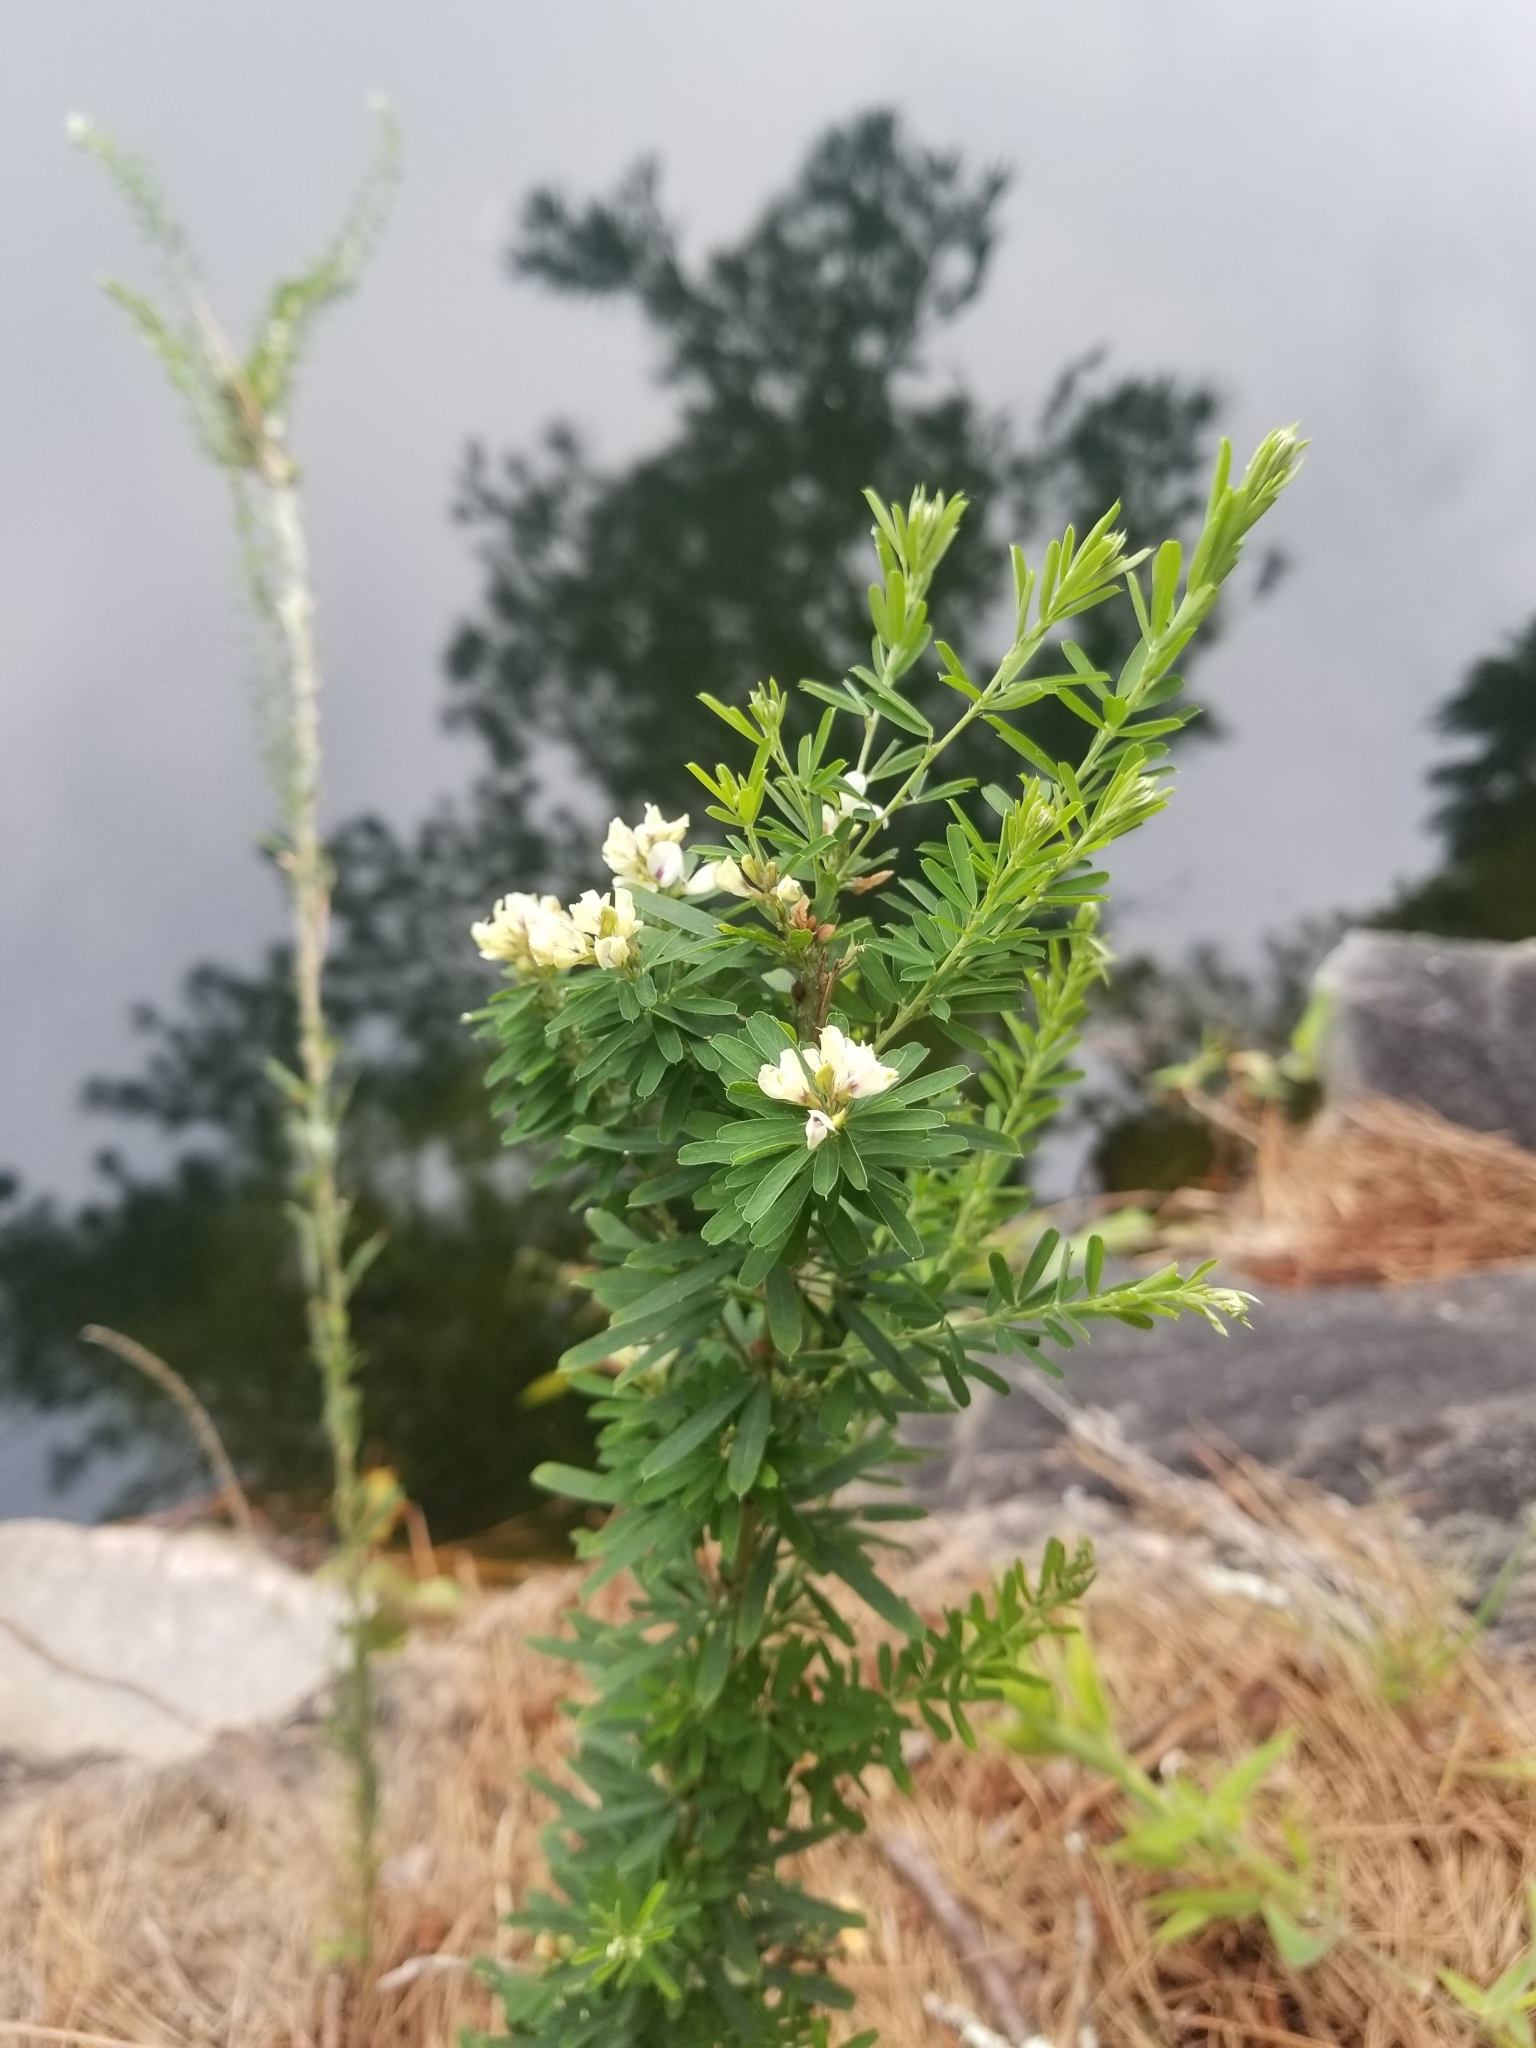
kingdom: Plantae
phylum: Tracheophyta
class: Magnoliopsida
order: Fabales
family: Fabaceae
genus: Lespedeza
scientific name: Lespedeza cuneata
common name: Chinese bush-clover
